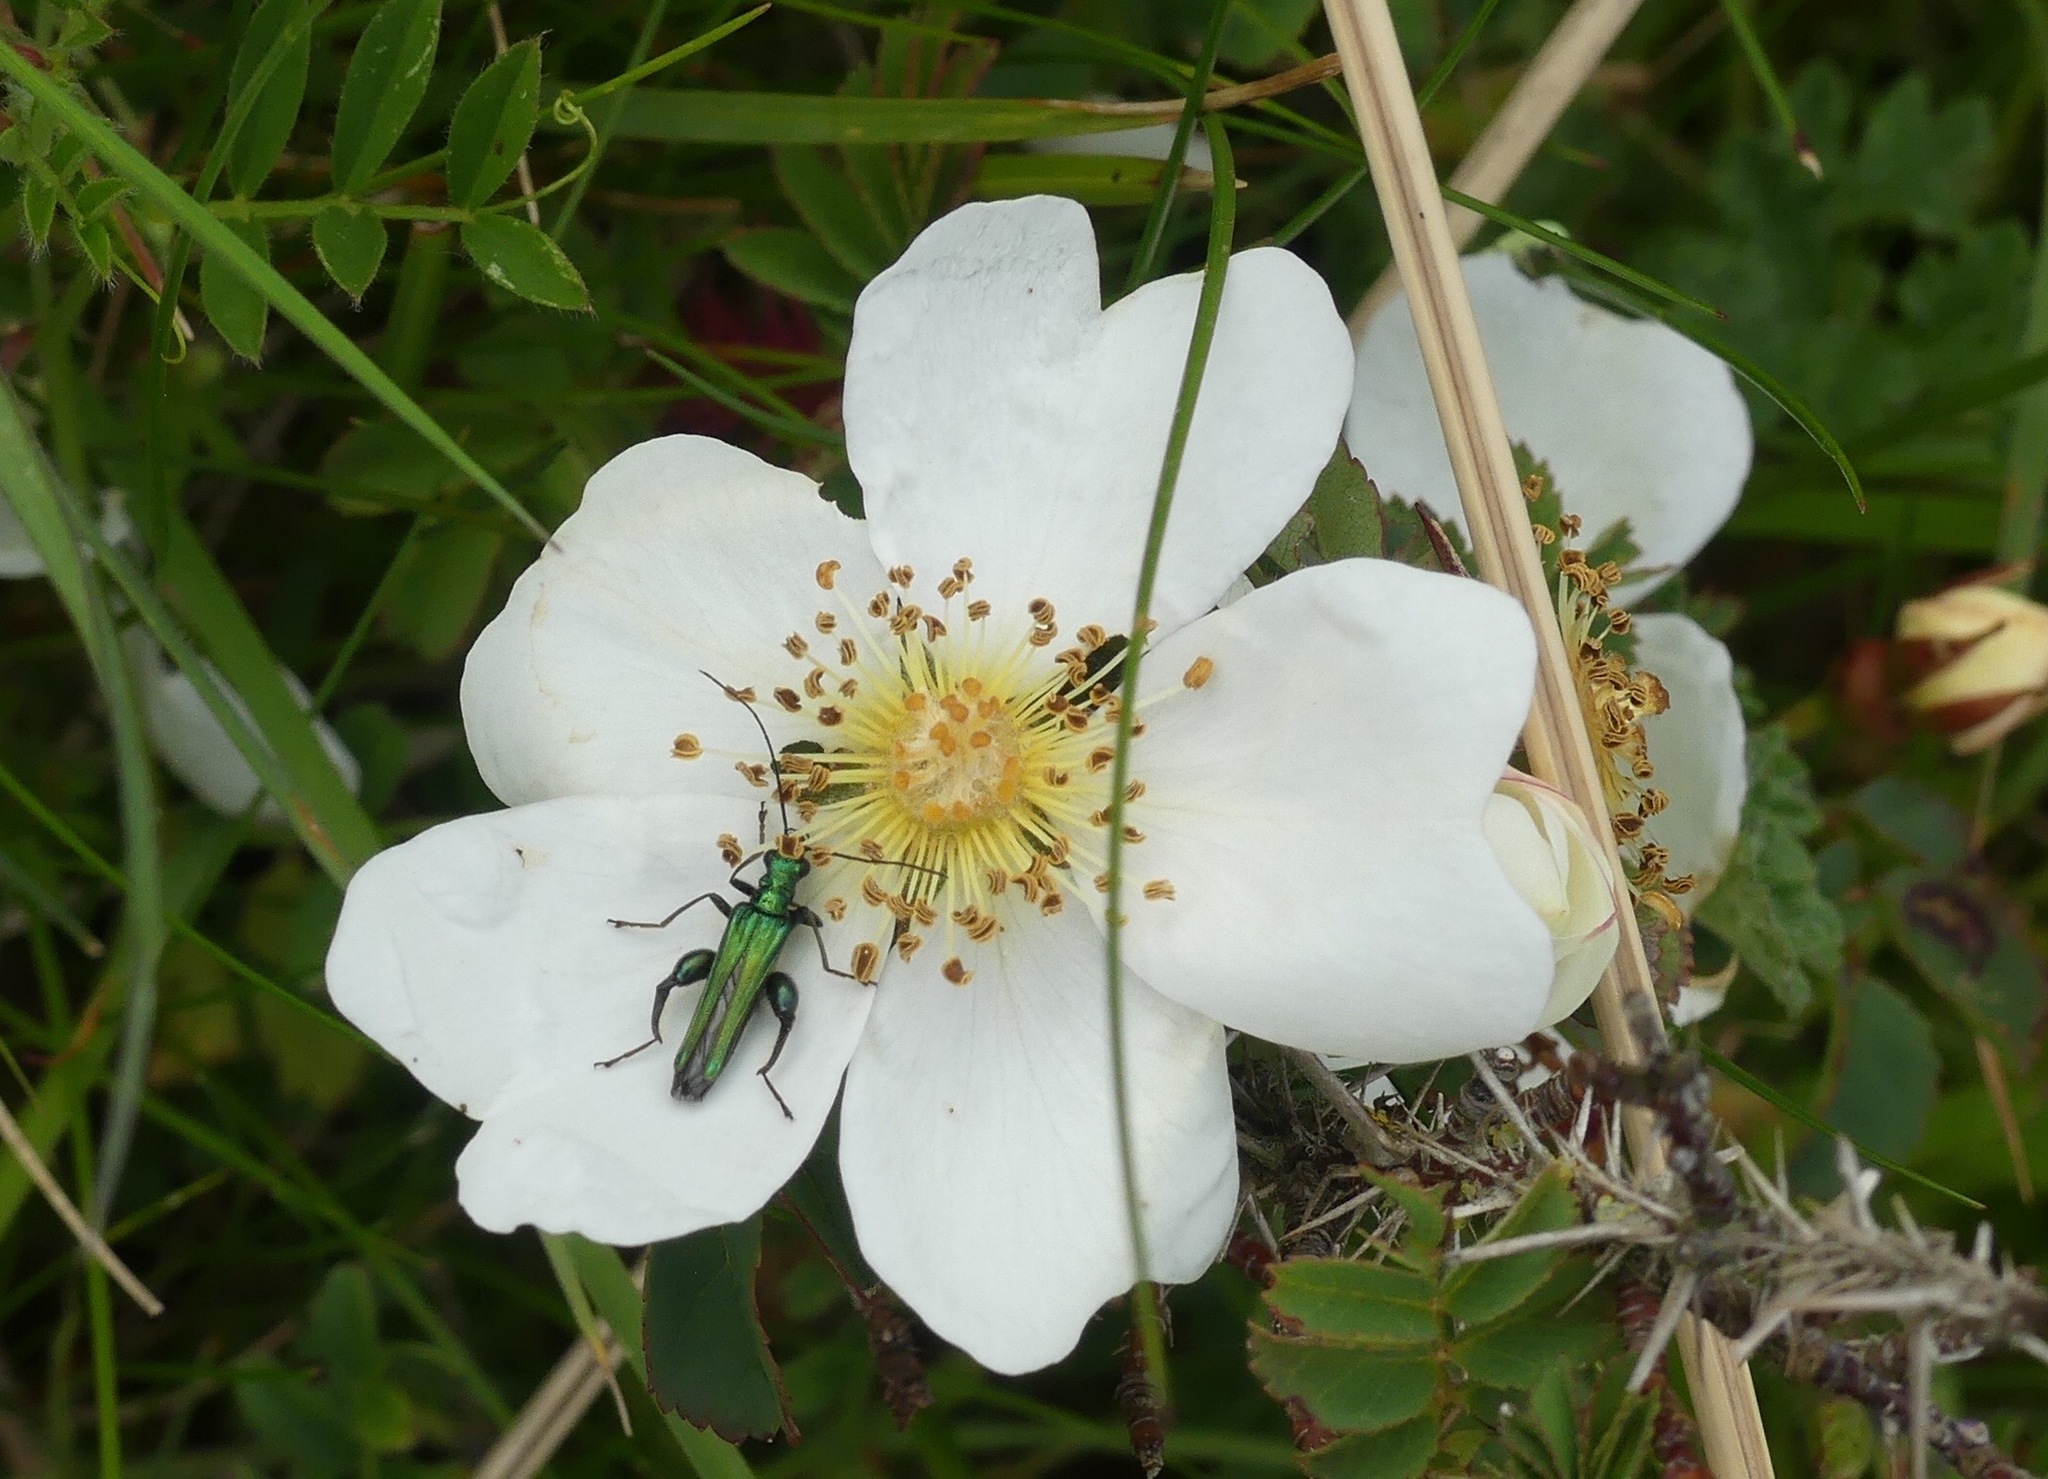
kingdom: Animalia
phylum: Arthropoda
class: Insecta
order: Coleoptera
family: Oedemeridae
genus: Oedemera
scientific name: Oedemera nobilis
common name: Swollen-thighed beetle
